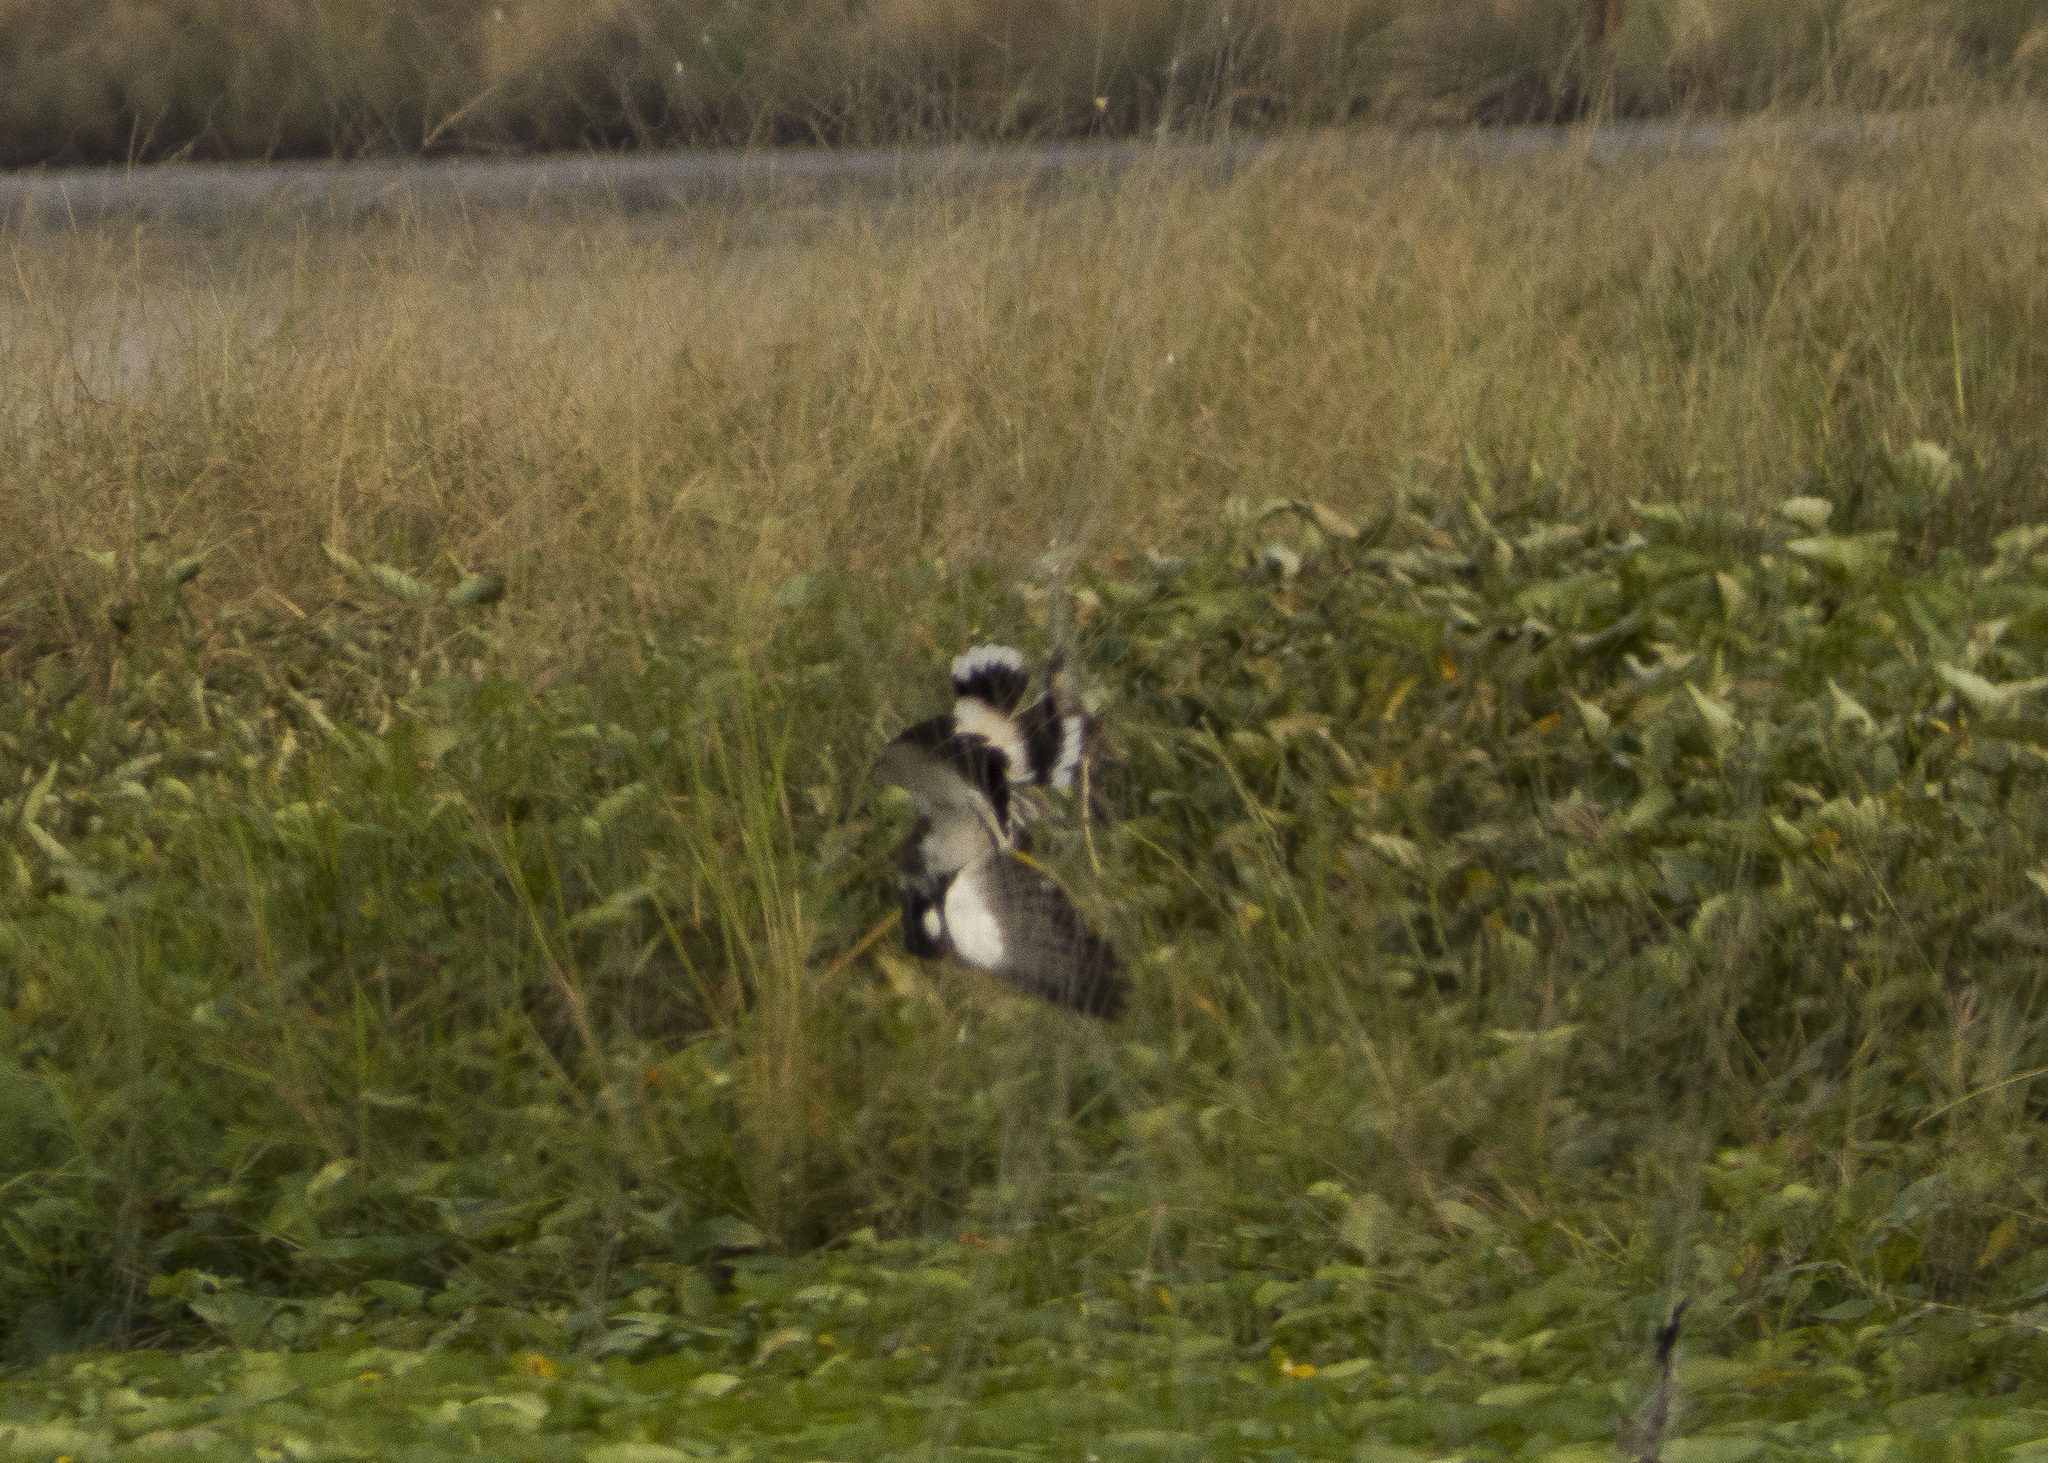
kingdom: Animalia
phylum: Chordata
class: Aves
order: Charadriiformes
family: Charadriidae
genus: Vanellus
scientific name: Vanellus indicus
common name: Red-wattled lapwing
